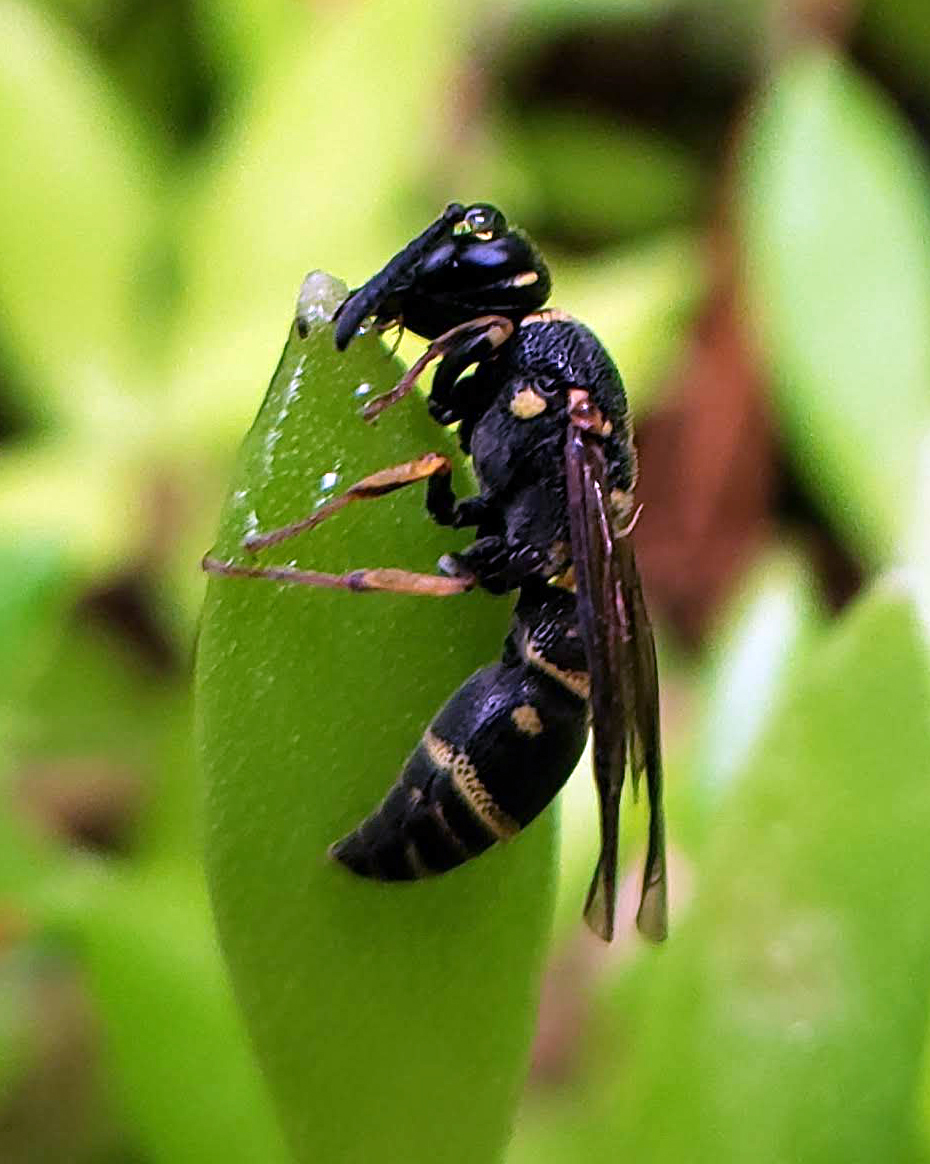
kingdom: Animalia
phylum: Arthropoda
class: Insecta
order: Hymenoptera
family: Eumenidae
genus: Parancistrocerus
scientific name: Parancistrocerus pedestris
